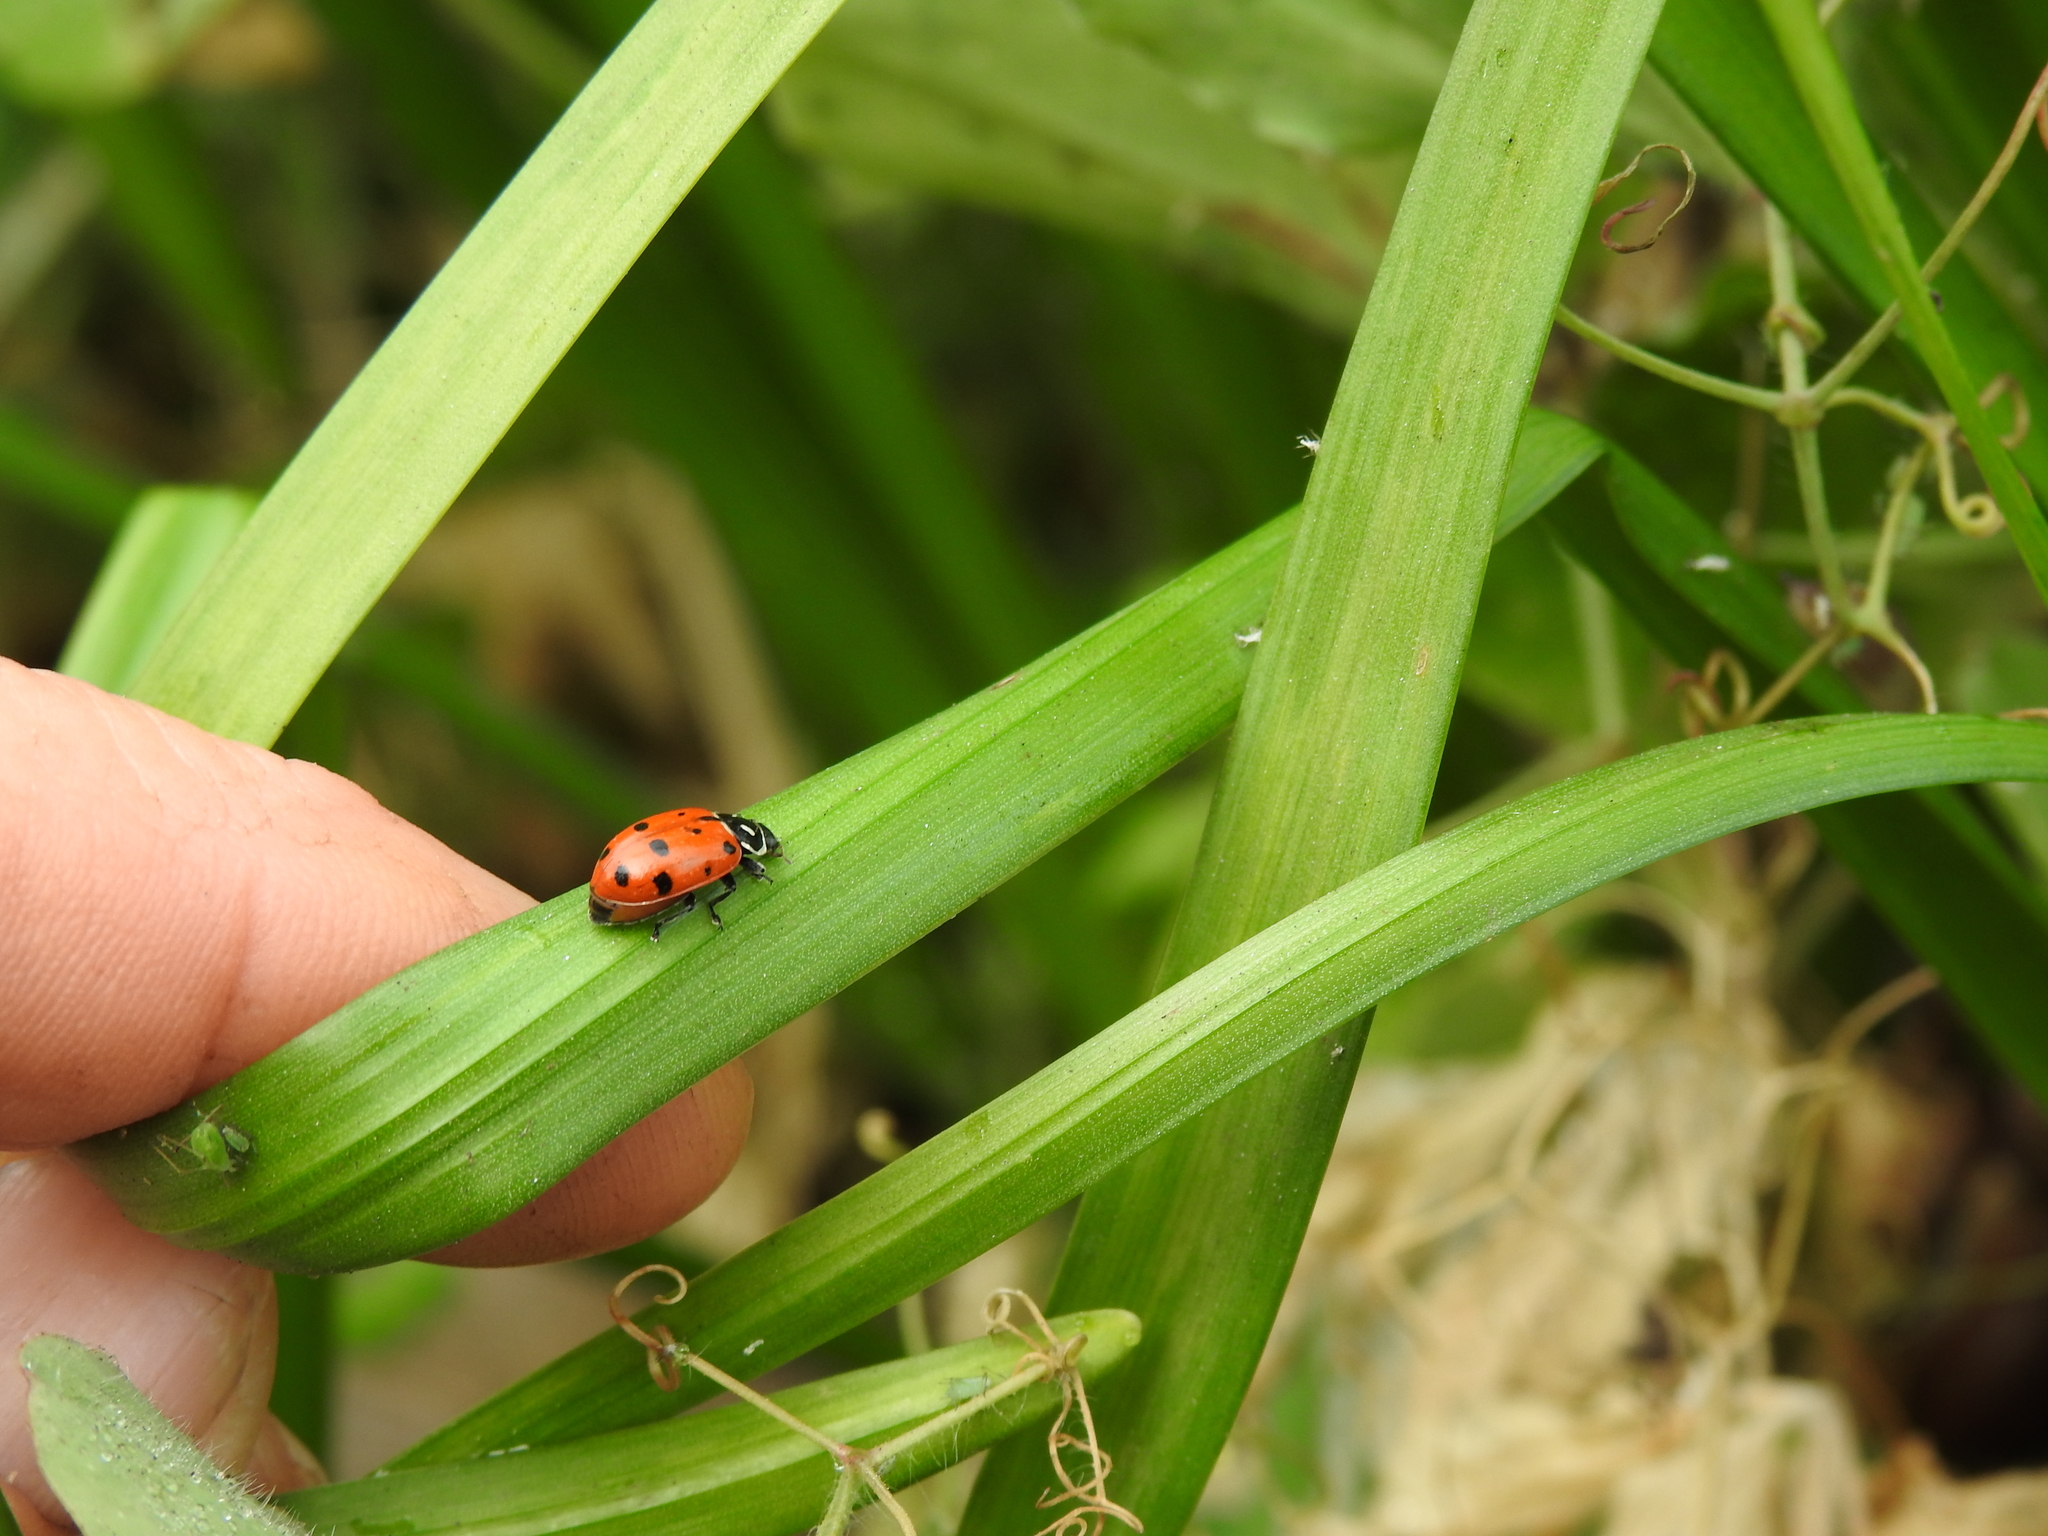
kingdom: Animalia
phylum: Arthropoda
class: Insecta
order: Coleoptera
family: Coccinellidae
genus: Hippodamia
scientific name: Hippodamia convergens
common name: Convergent lady beetle
